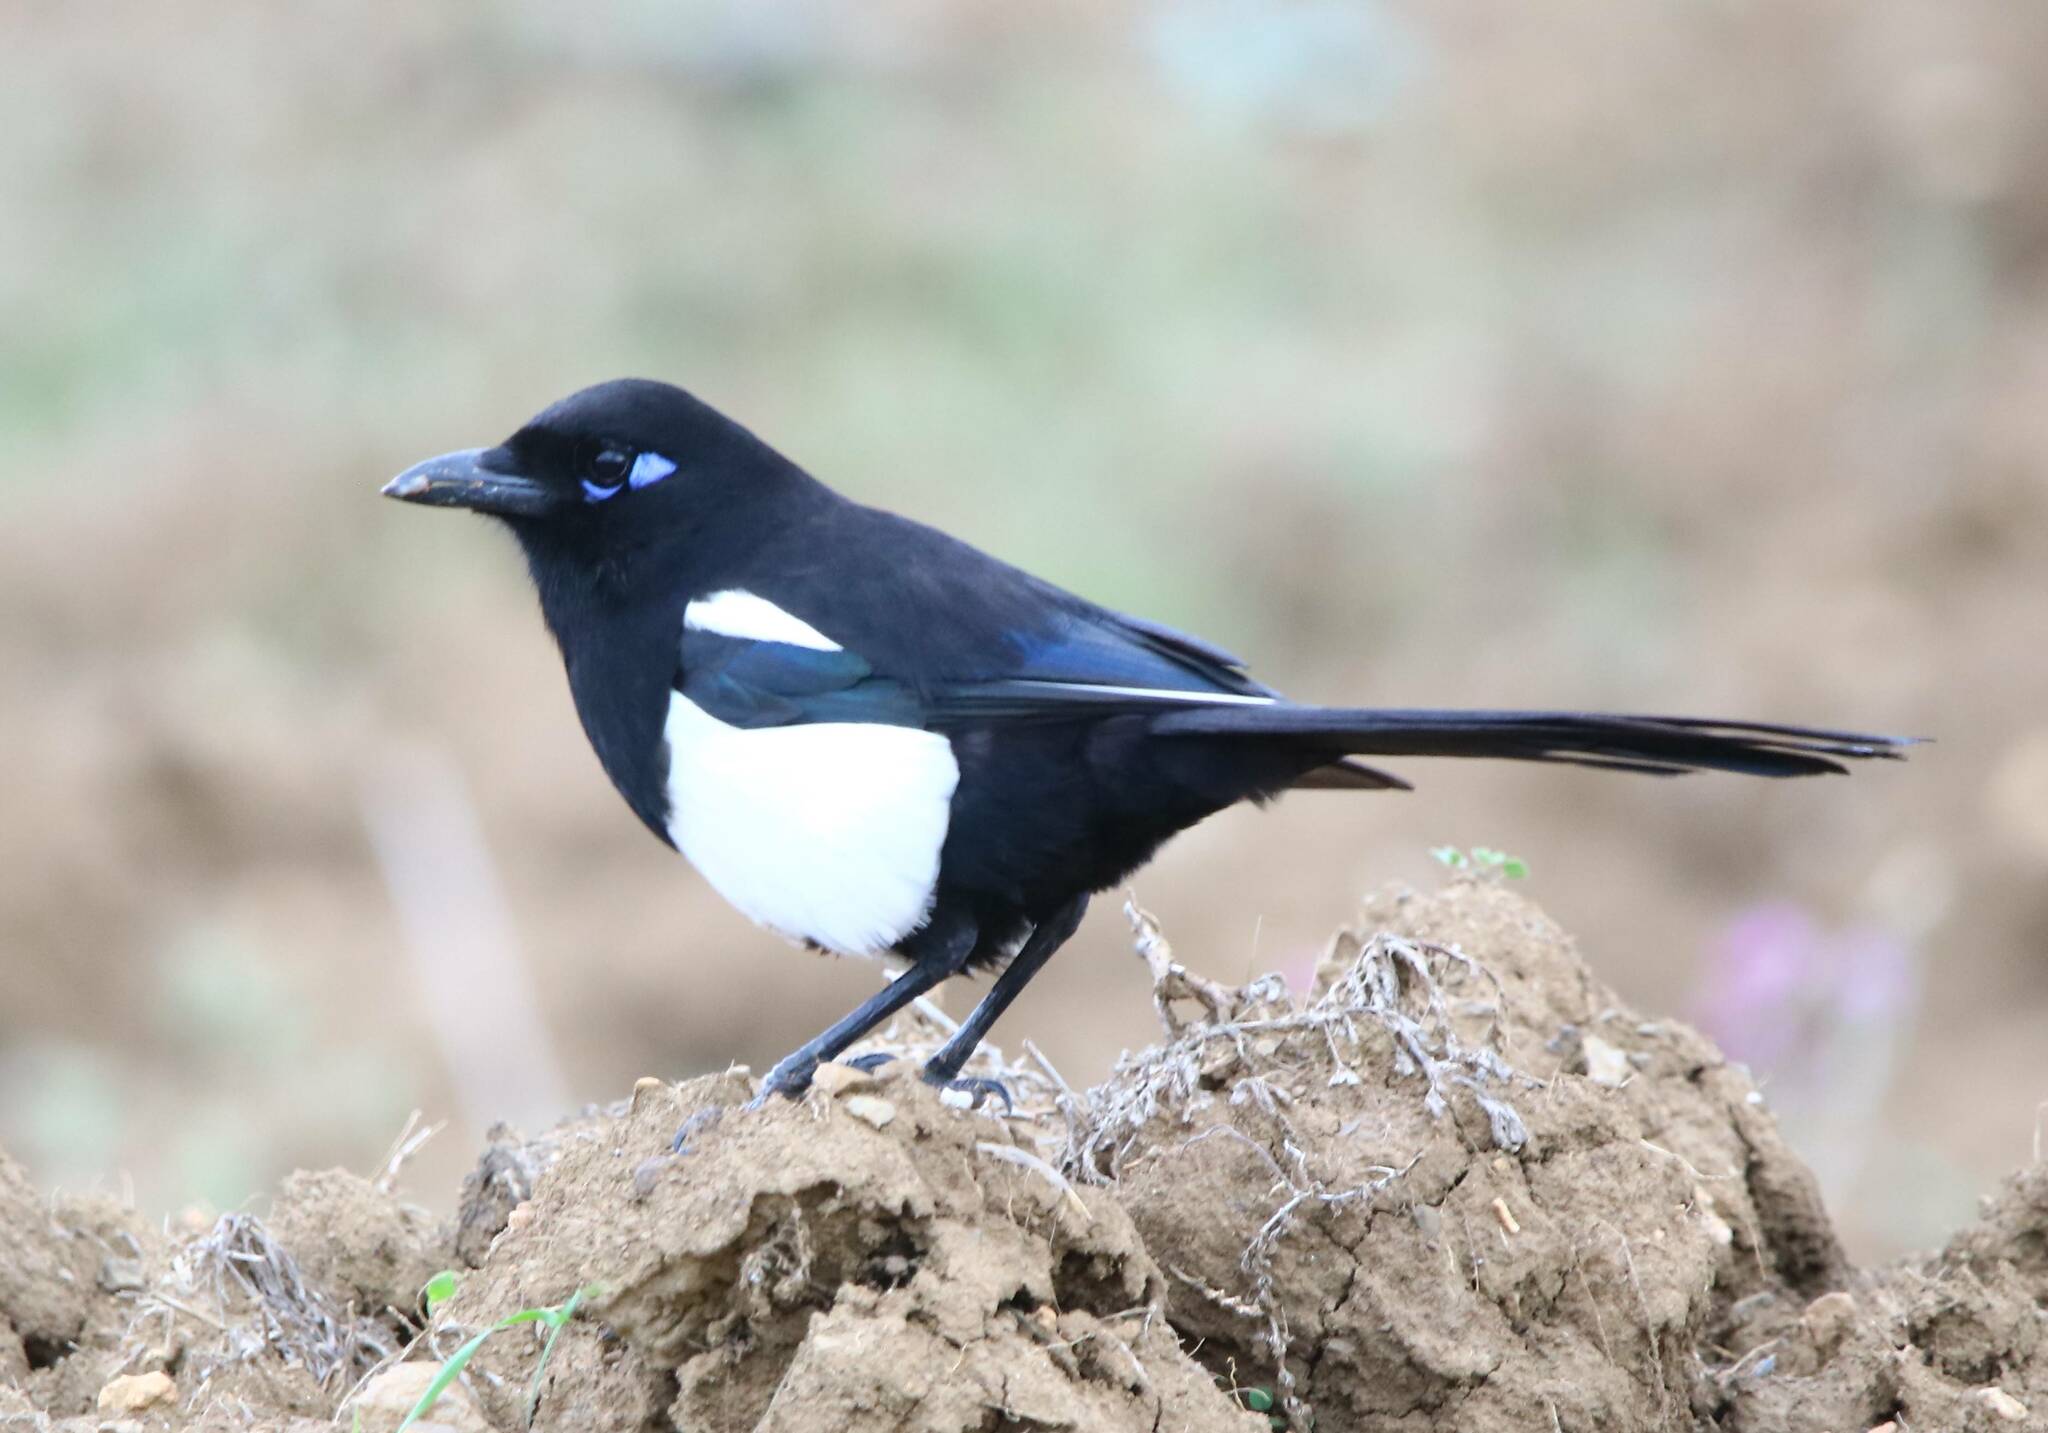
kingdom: Animalia
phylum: Chordata
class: Aves
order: Passeriformes
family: Corvidae
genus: Pica
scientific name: Pica mauritanica
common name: Maghreb magpie
